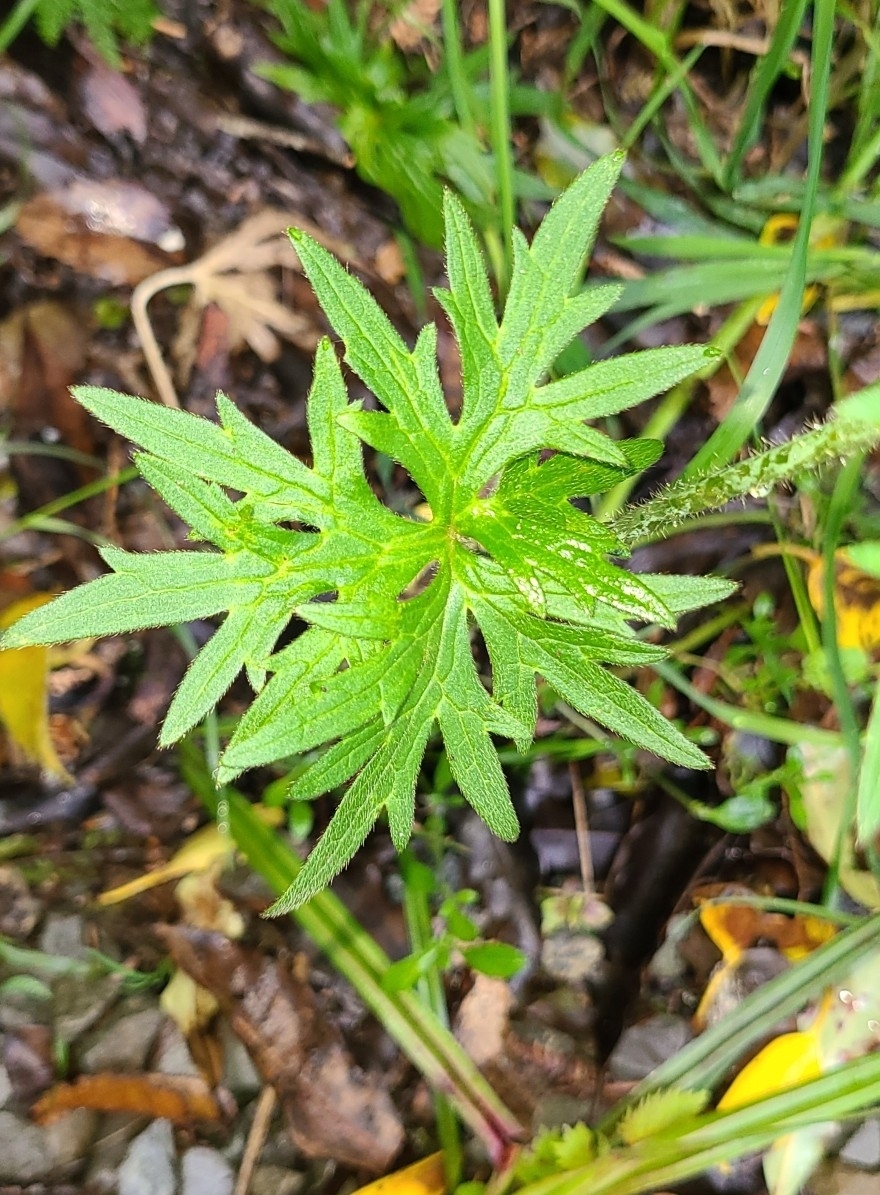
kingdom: Plantae
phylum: Tracheophyta
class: Magnoliopsida
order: Ranunculales
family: Ranunculaceae
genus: Ranunculus
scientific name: Ranunculus acris
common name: Meadow buttercup
